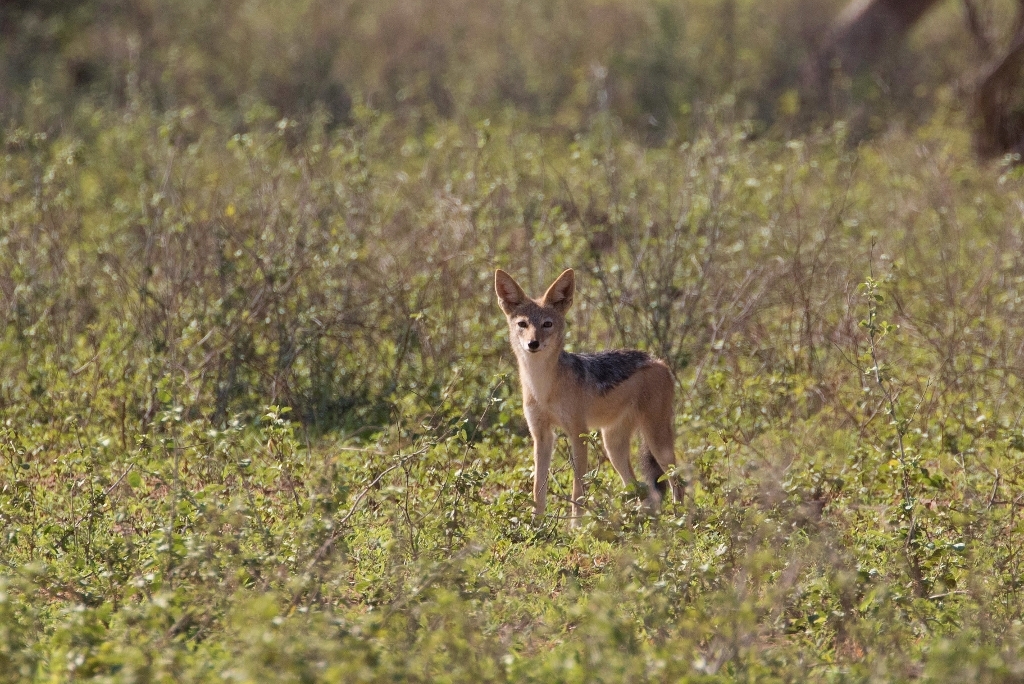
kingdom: Animalia
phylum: Chordata
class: Mammalia
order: Carnivora
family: Canidae
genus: Lupulella
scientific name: Lupulella
